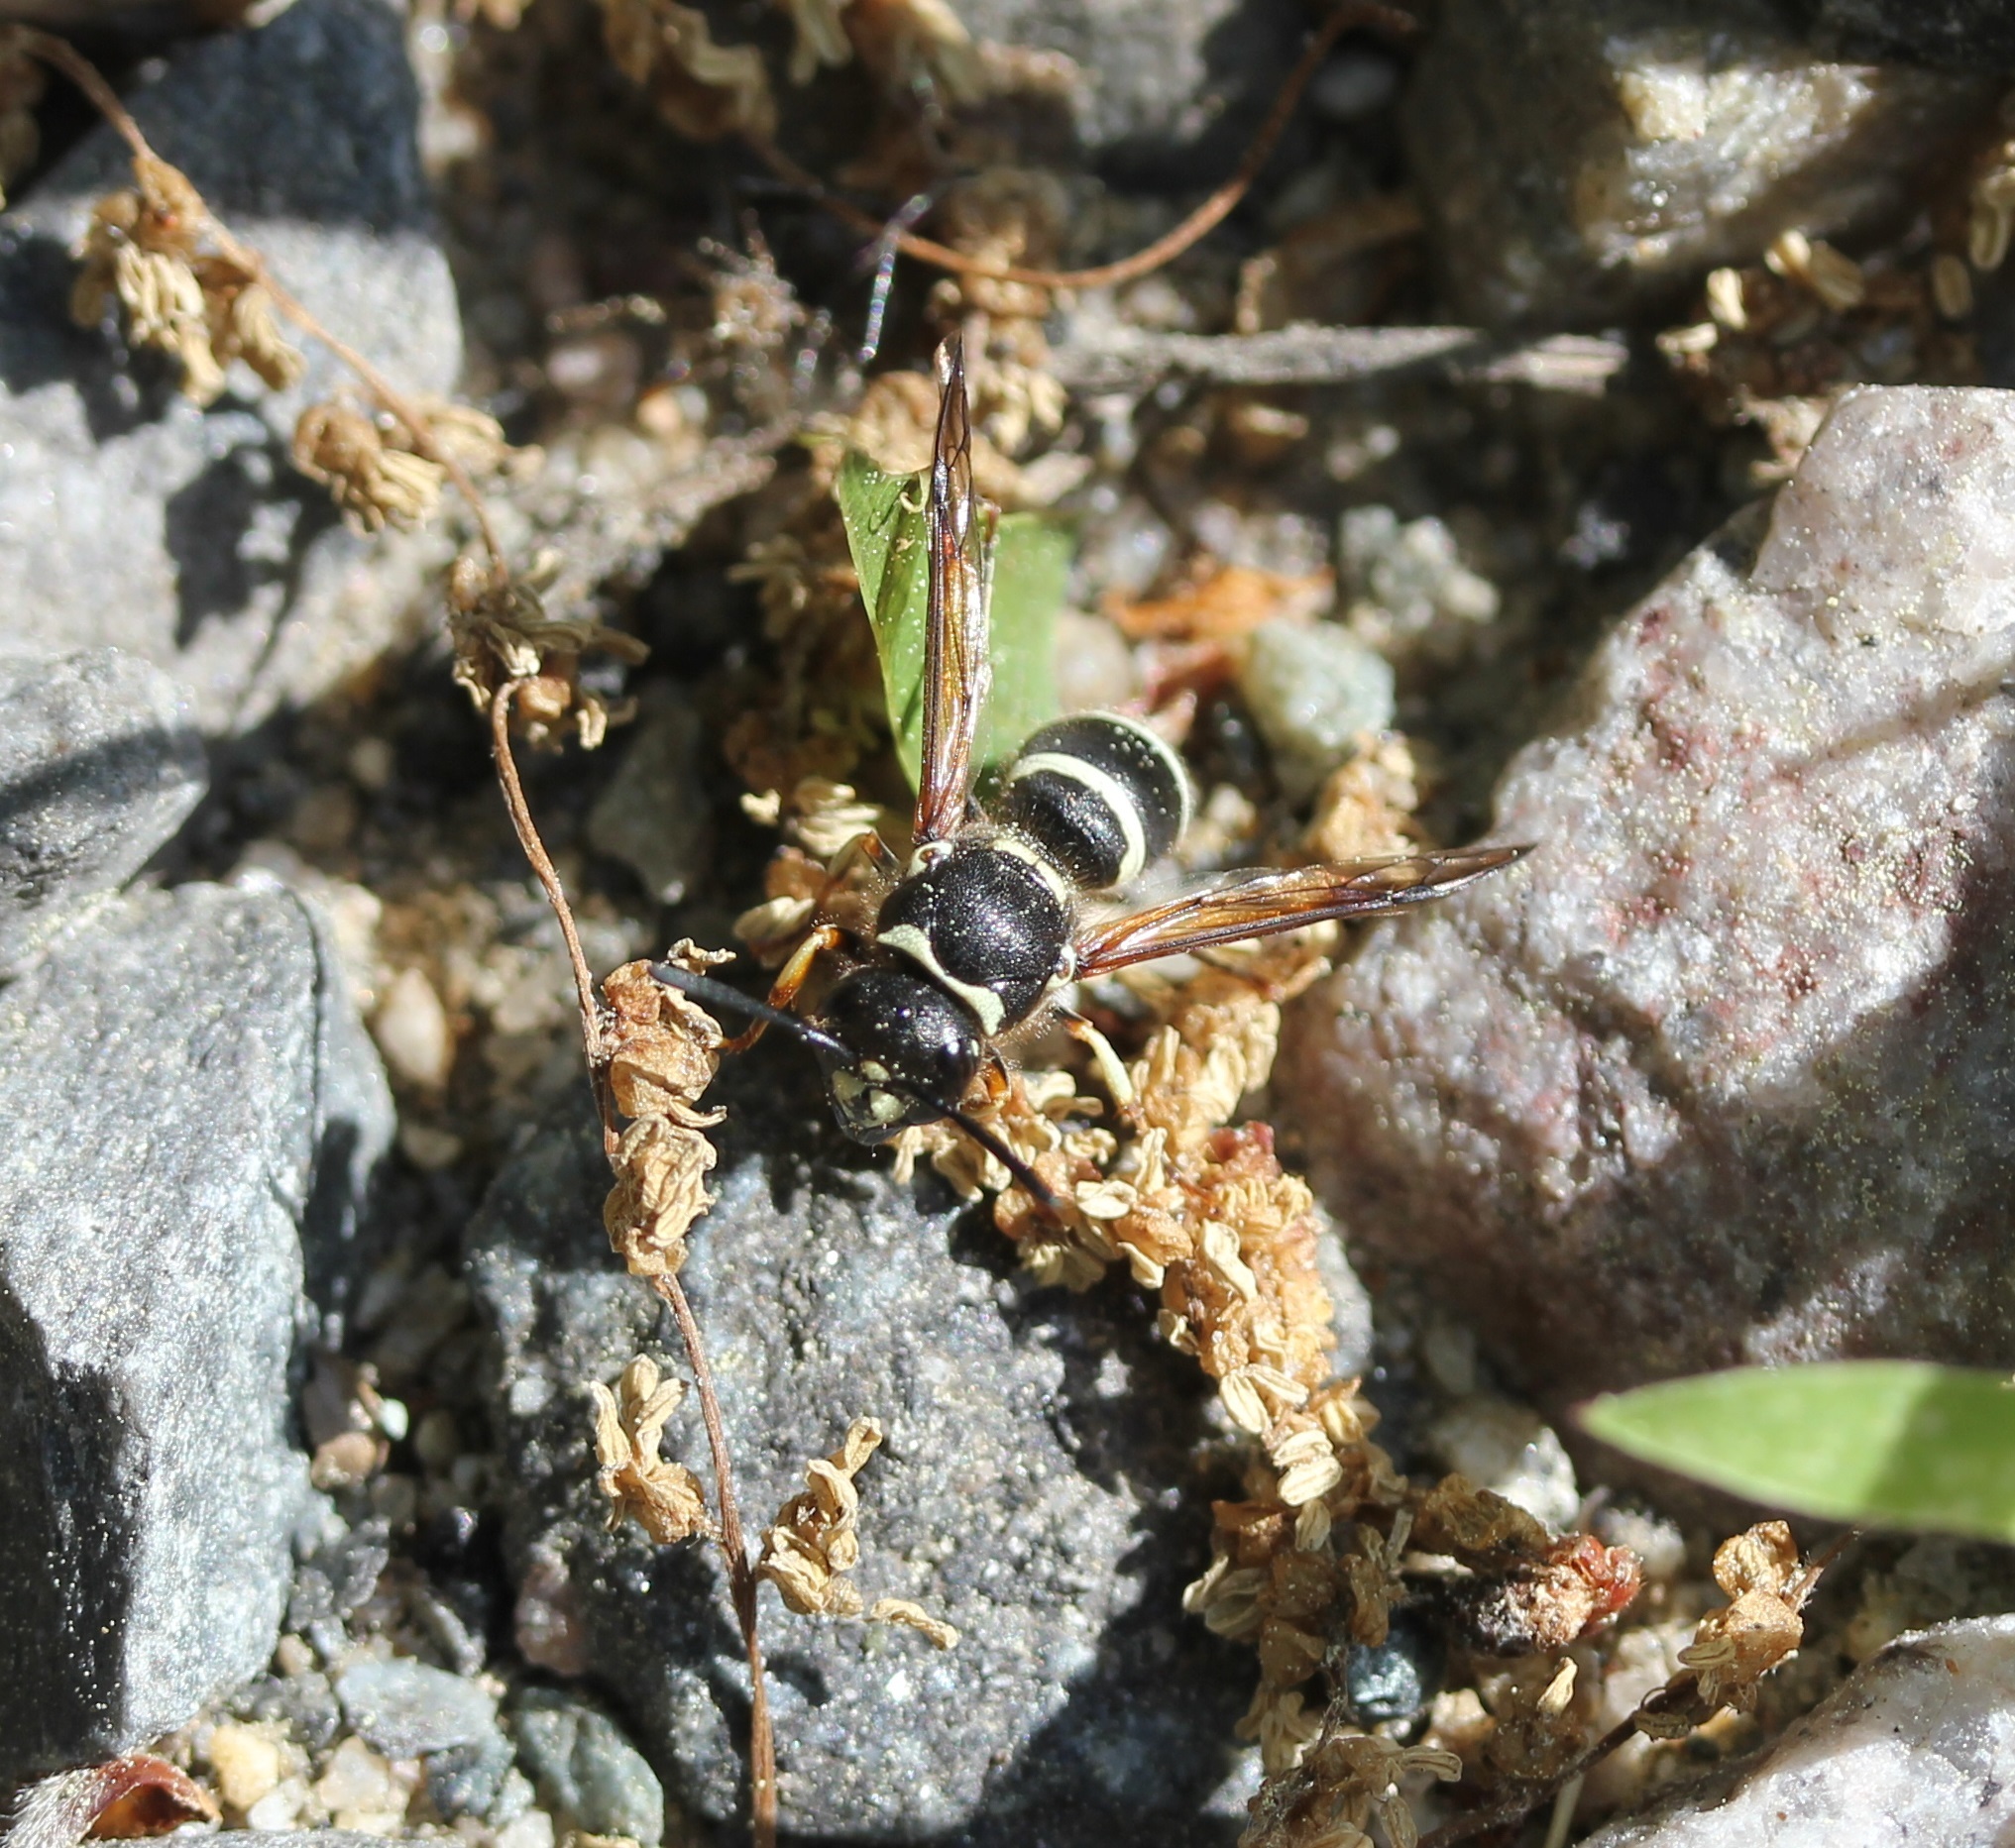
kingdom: Animalia
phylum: Arthropoda
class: Insecta
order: Hymenoptera
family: Vespidae
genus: Ancistrocerus
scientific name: Ancistrocerus waldenii
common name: Walden’s potter wasp
